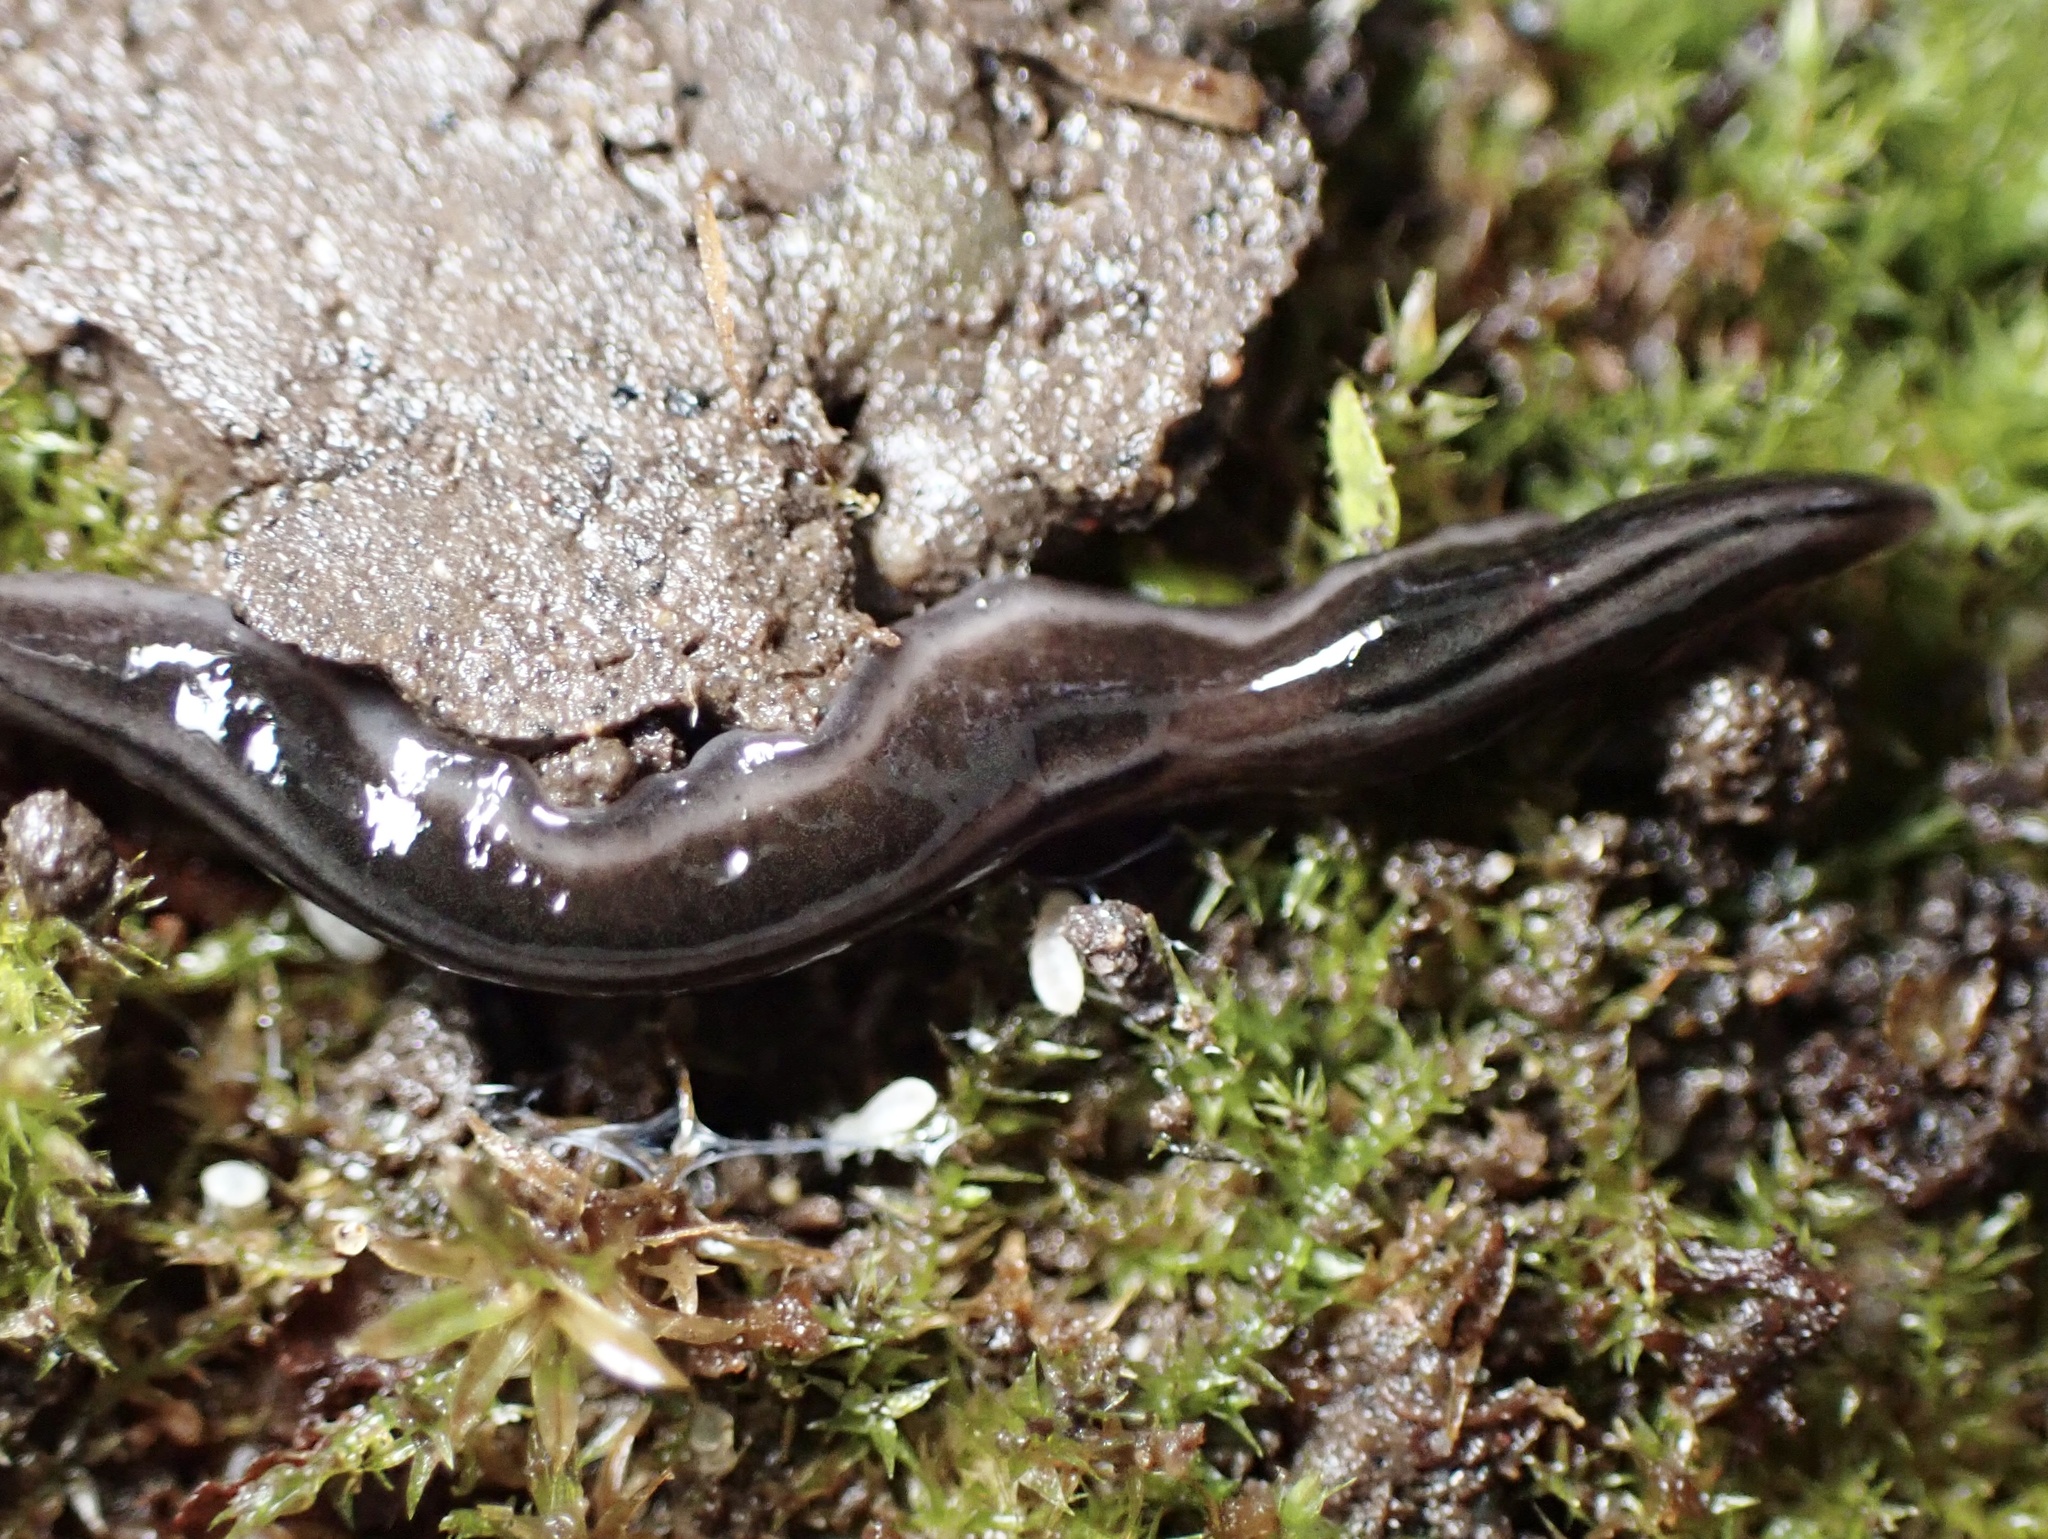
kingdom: Animalia
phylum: Platyhelminthes
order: Tricladida
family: Geoplanidae
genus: Parakontikia
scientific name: Parakontikia ventrolineata
